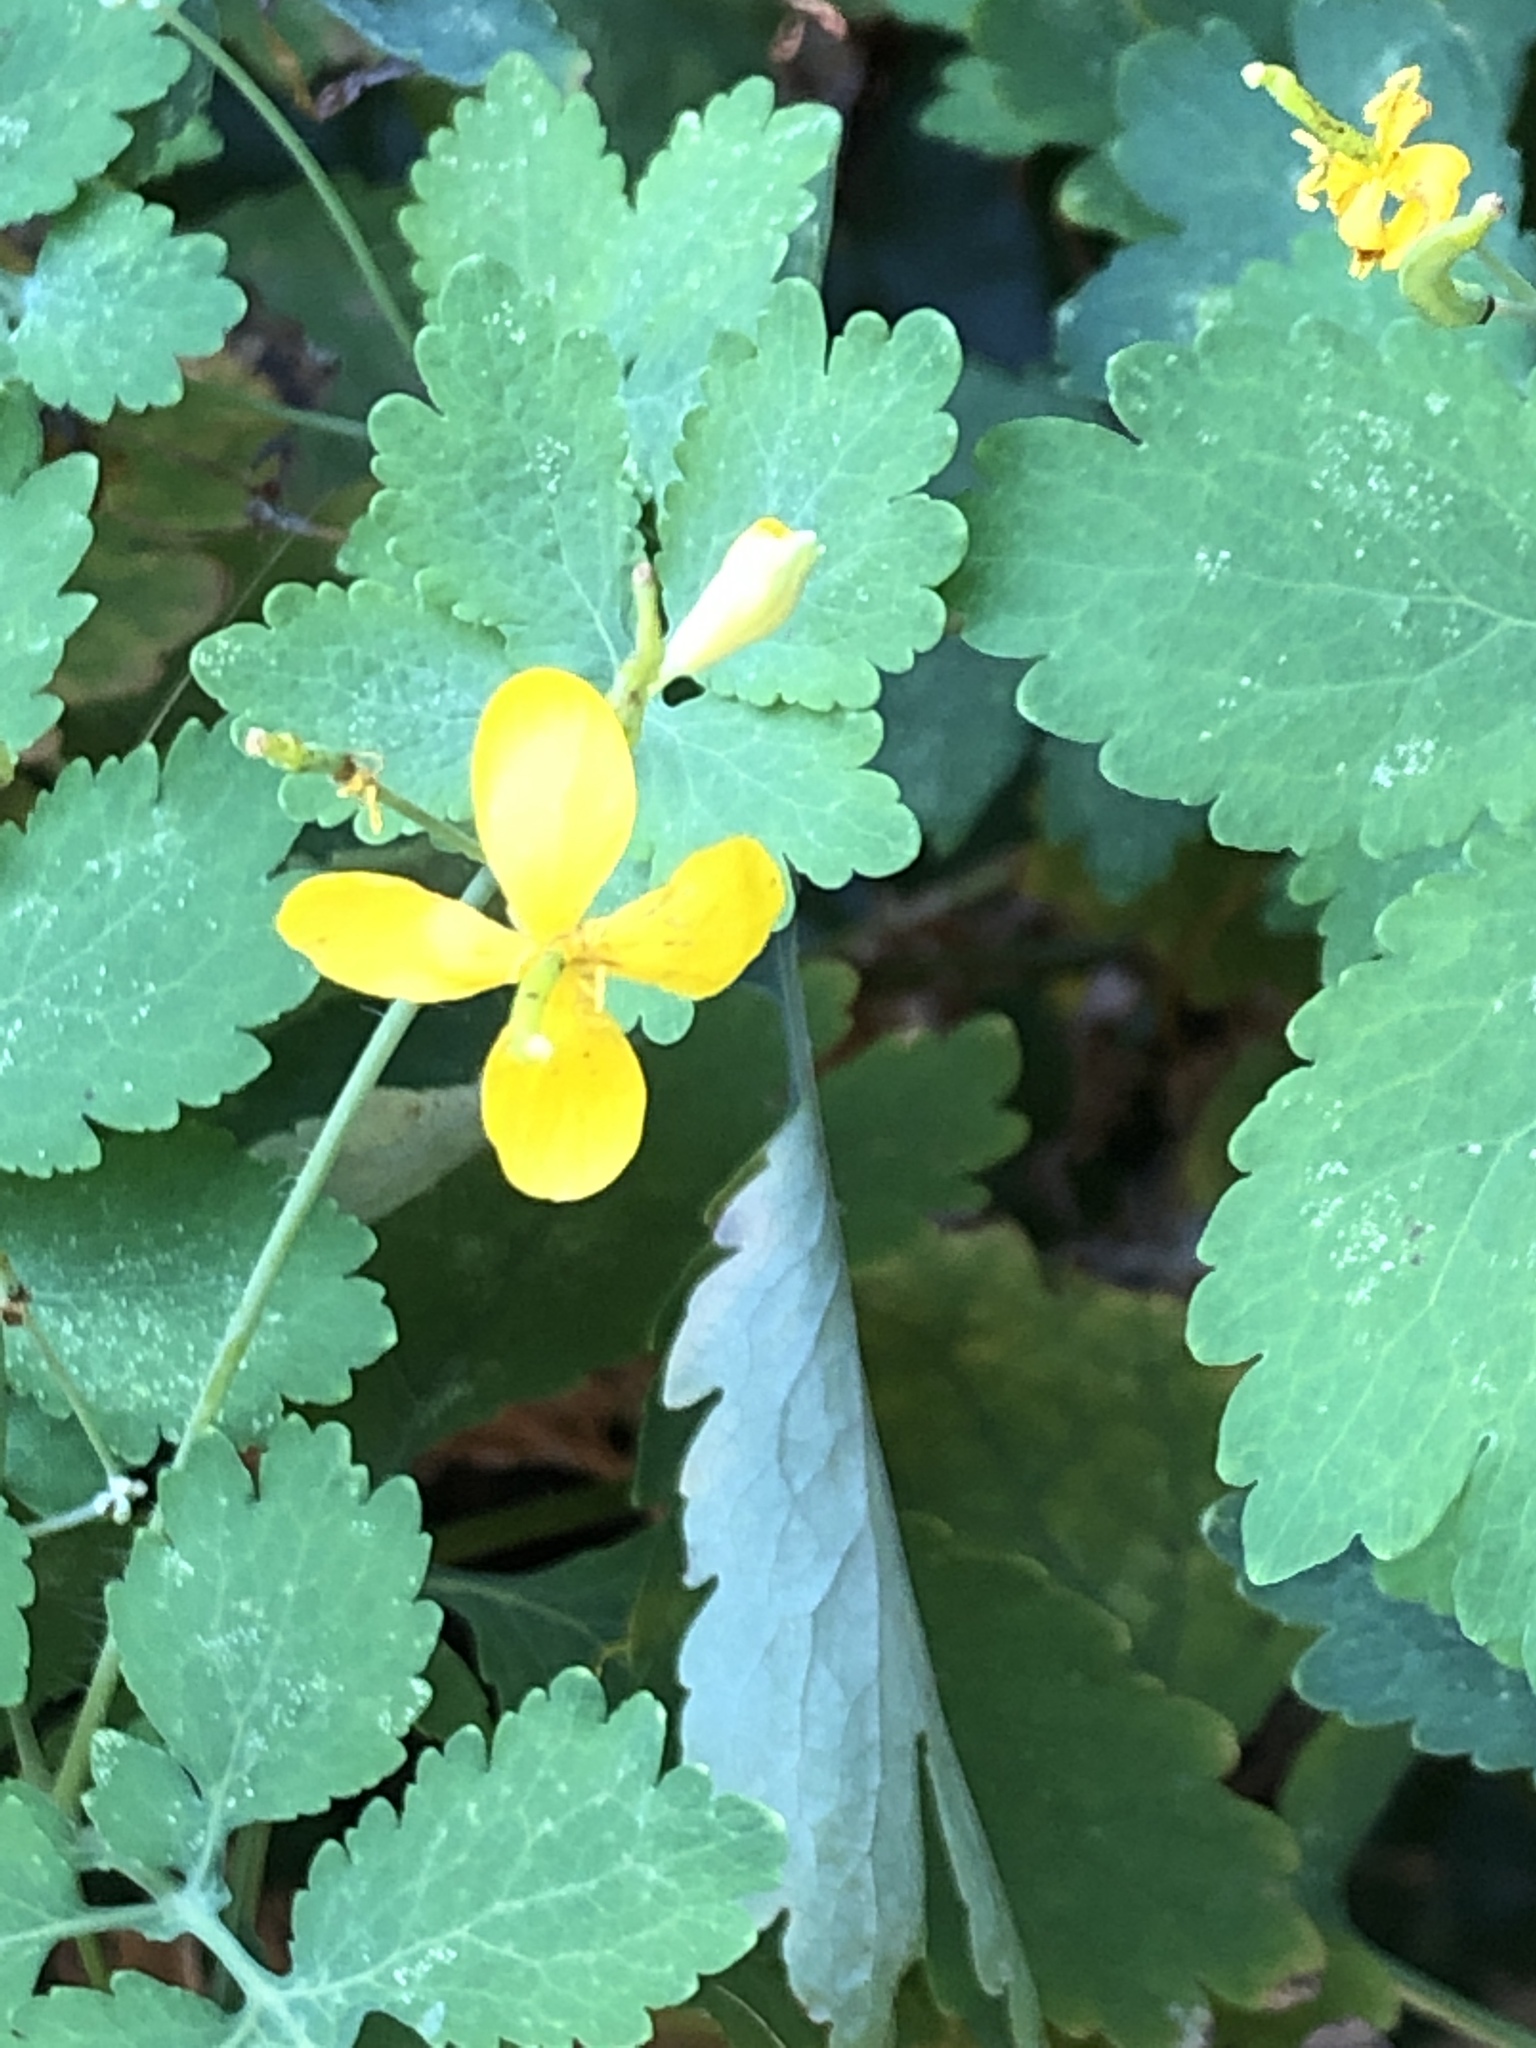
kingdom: Plantae
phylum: Tracheophyta
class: Magnoliopsida
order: Ranunculales
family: Papaveraceae
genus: Chelidonium
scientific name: Chelidonium majus
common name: Greater celandine
